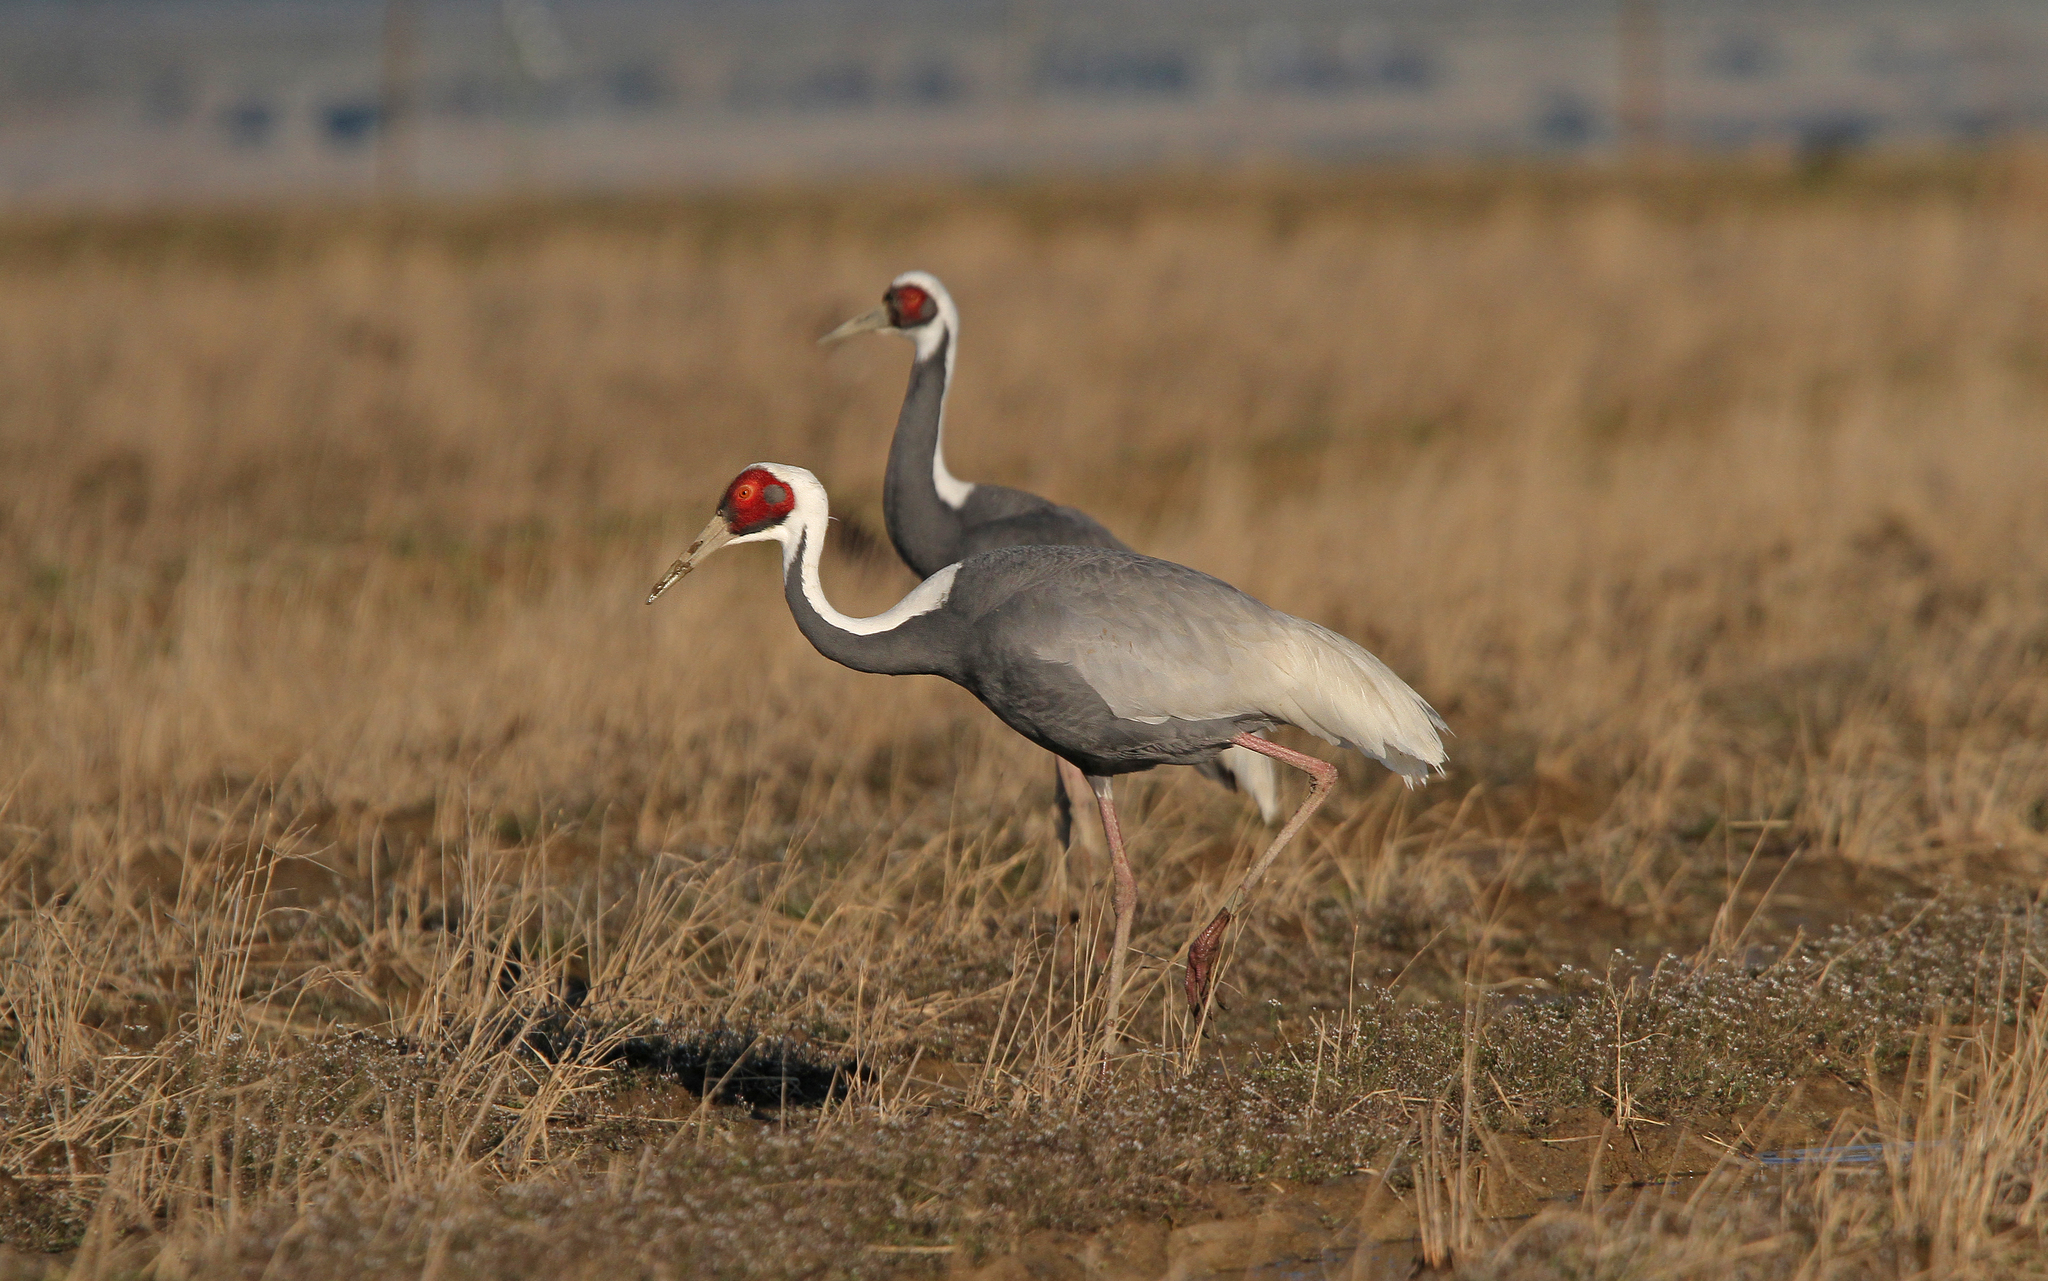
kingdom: Animalia
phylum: Chordata
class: Aves
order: Gruiformes
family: Gruidae
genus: Grus
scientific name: Grus vipio
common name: White-naped crane
